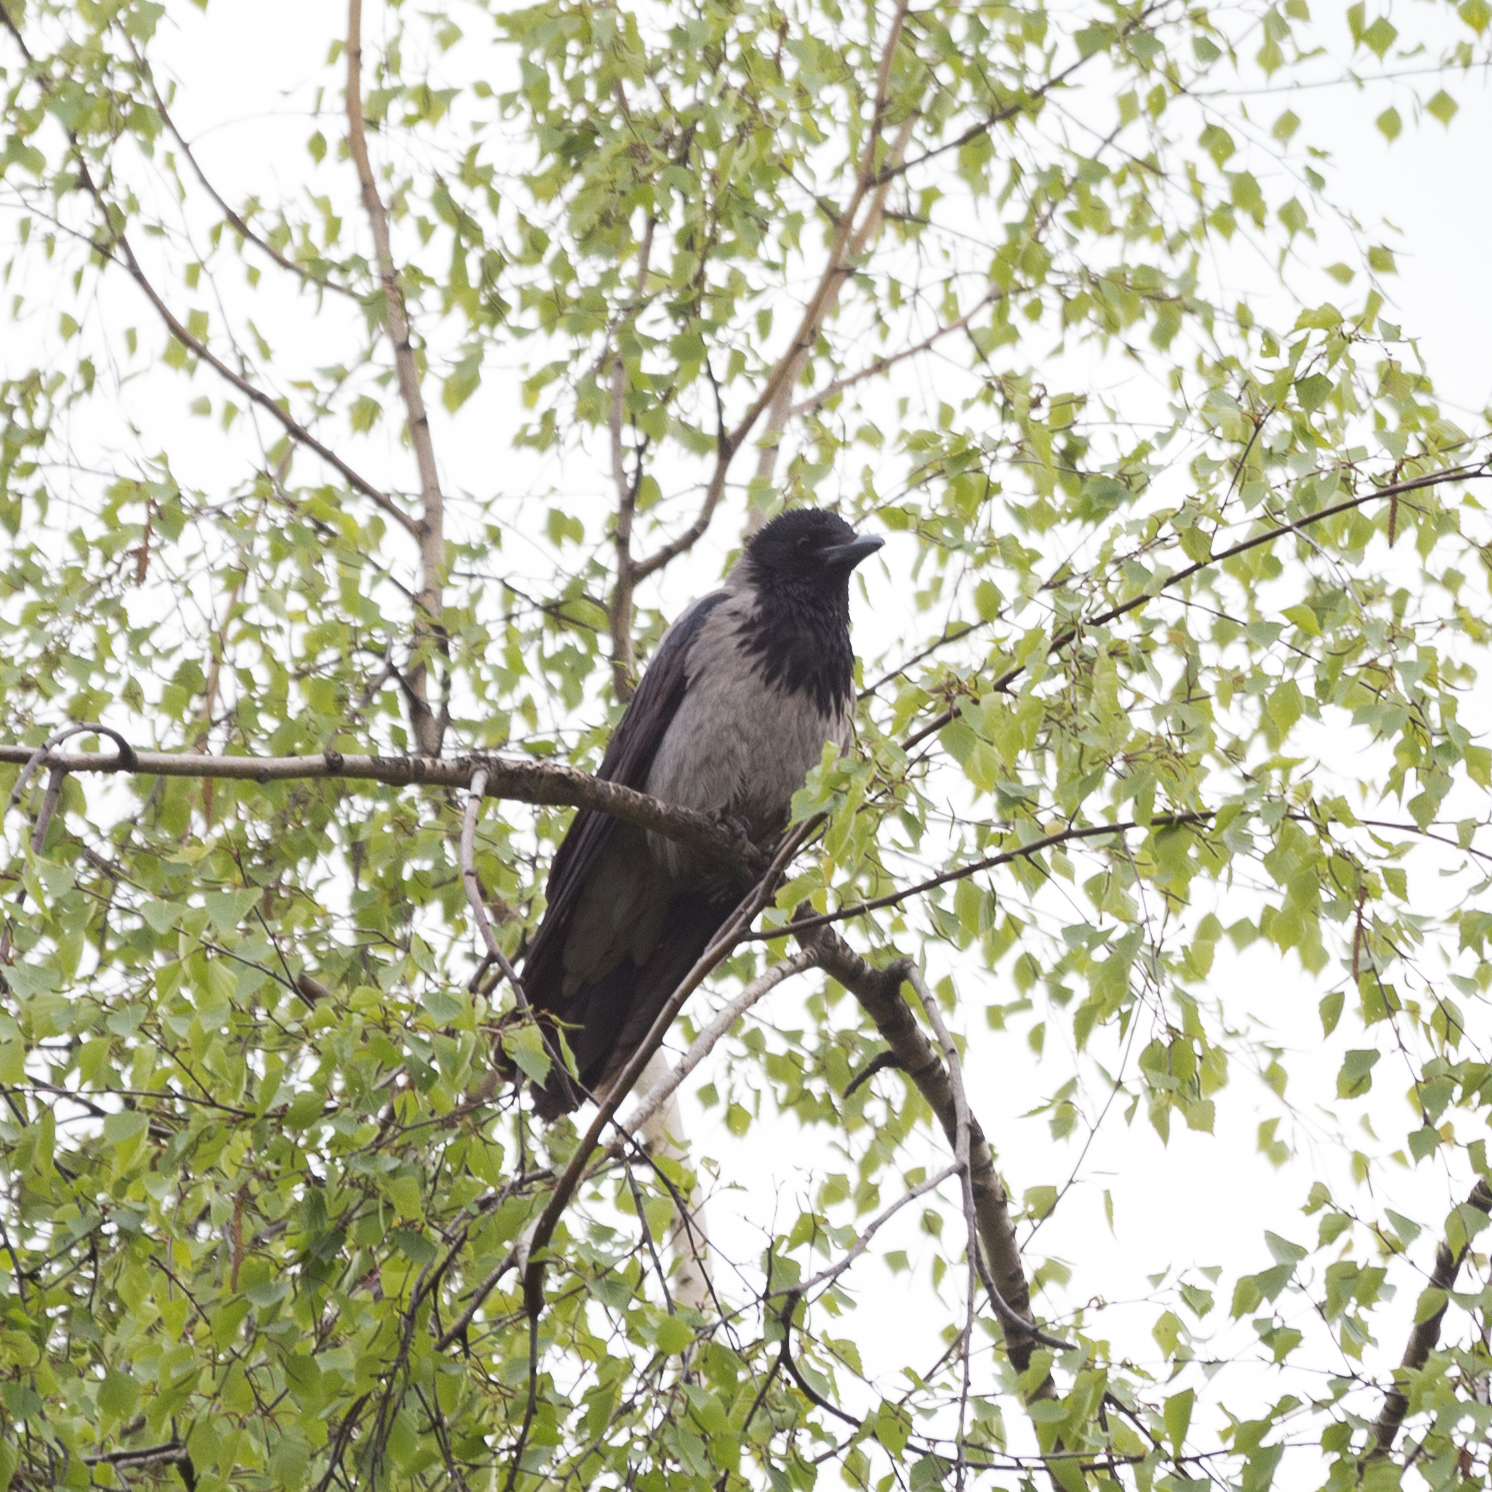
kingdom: Animalia
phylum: Chordata
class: Aves
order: Passeriformes
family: Corvidae
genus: Corvus
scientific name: Corvus cornix
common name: Hooded crow
